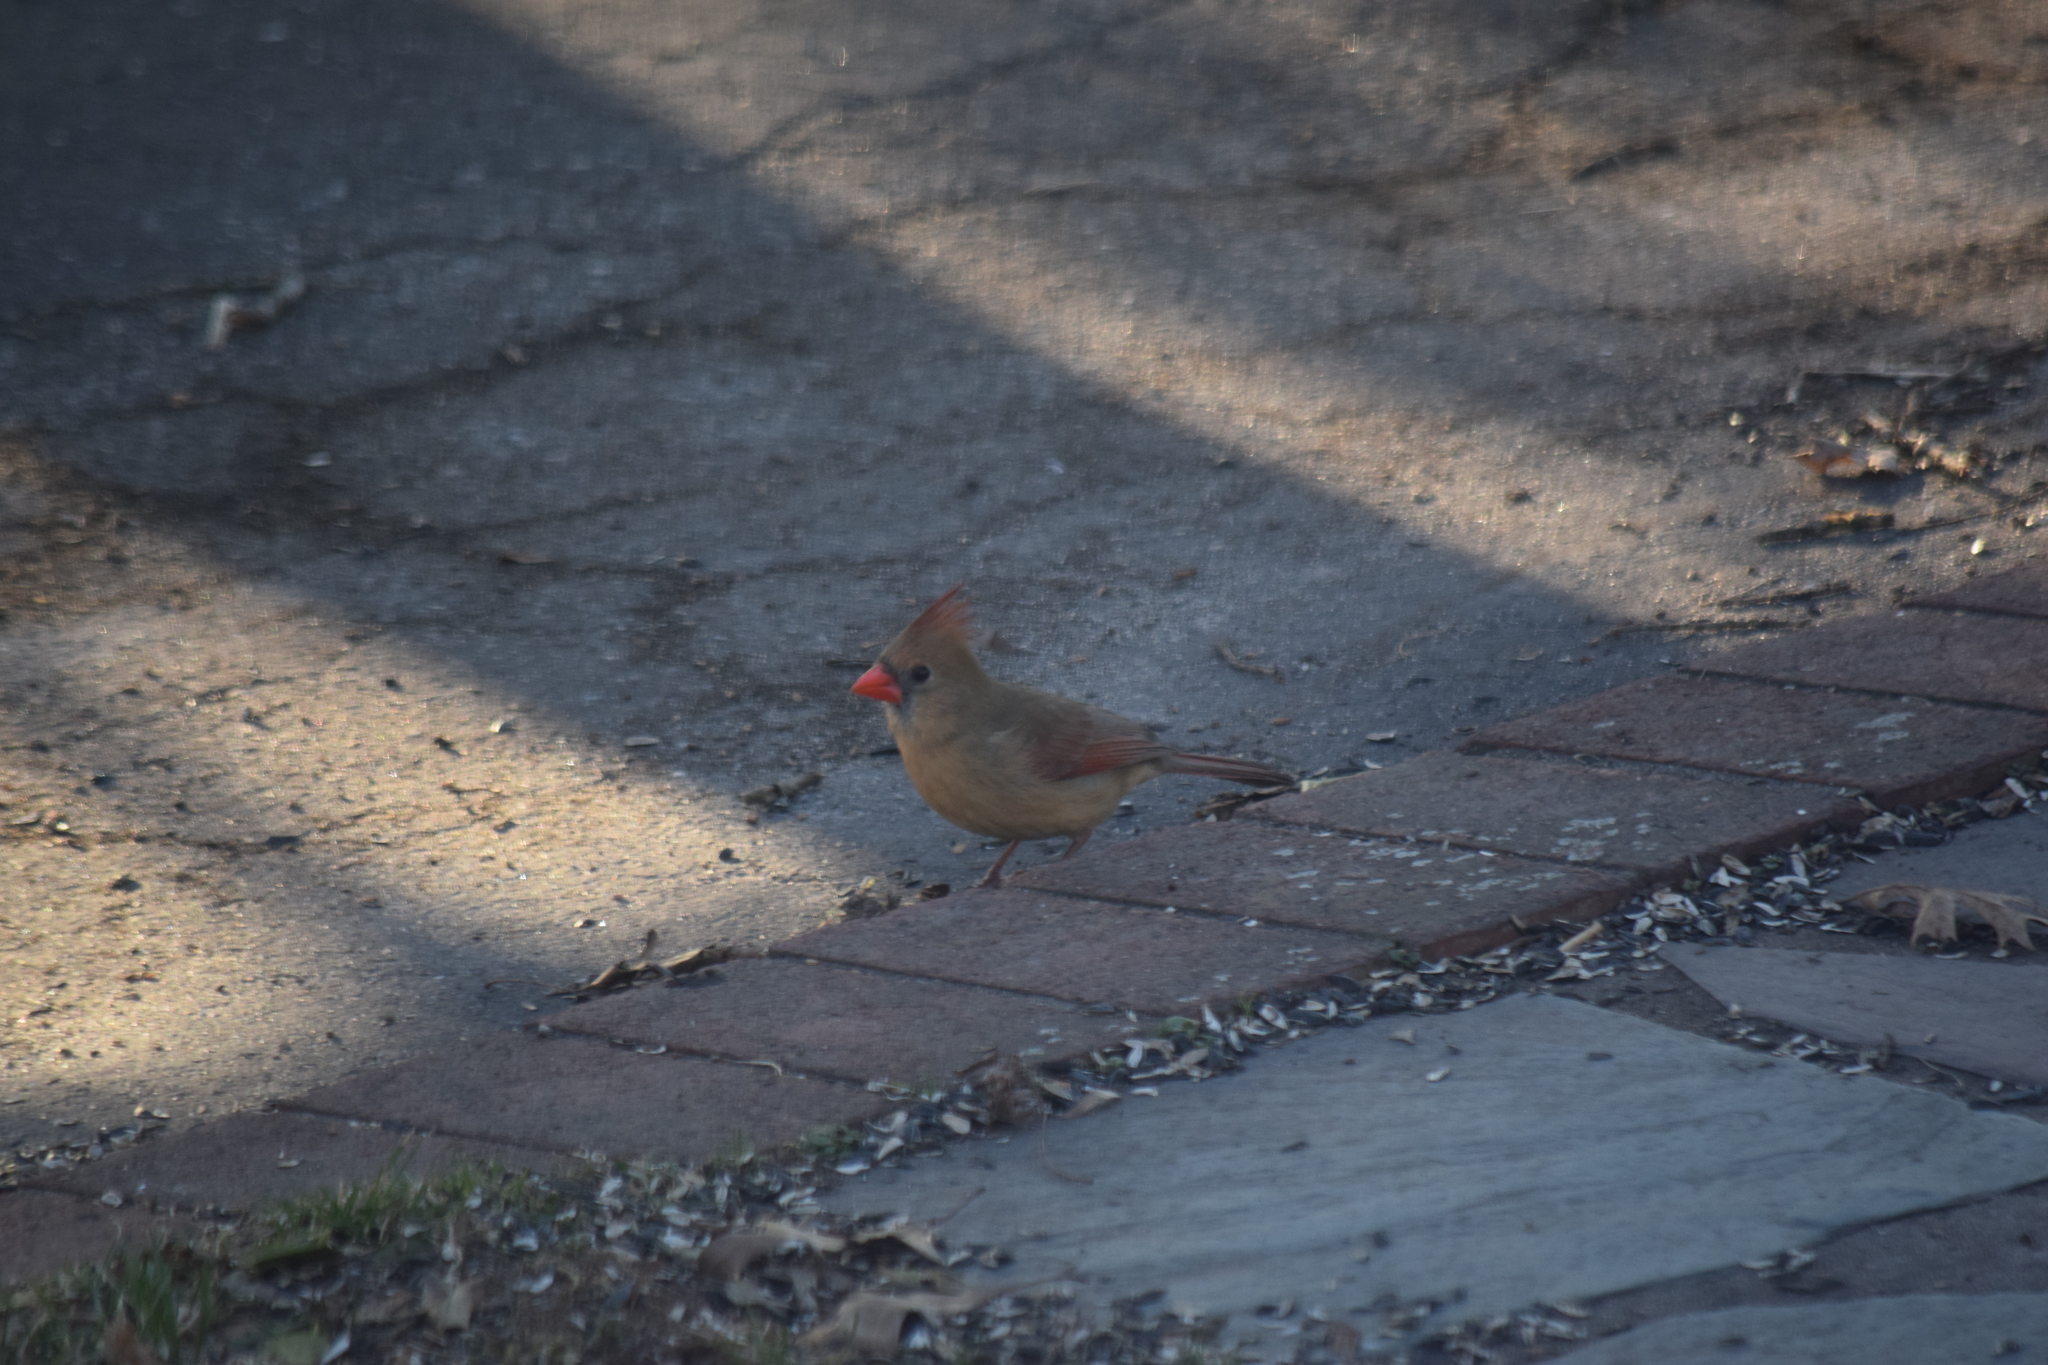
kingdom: Animalia
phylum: Chordata
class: Aves
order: Passeriformes
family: Cardinalidae
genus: Cardinalis
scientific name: Cardinalis cardinalis
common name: Northern cardinal
